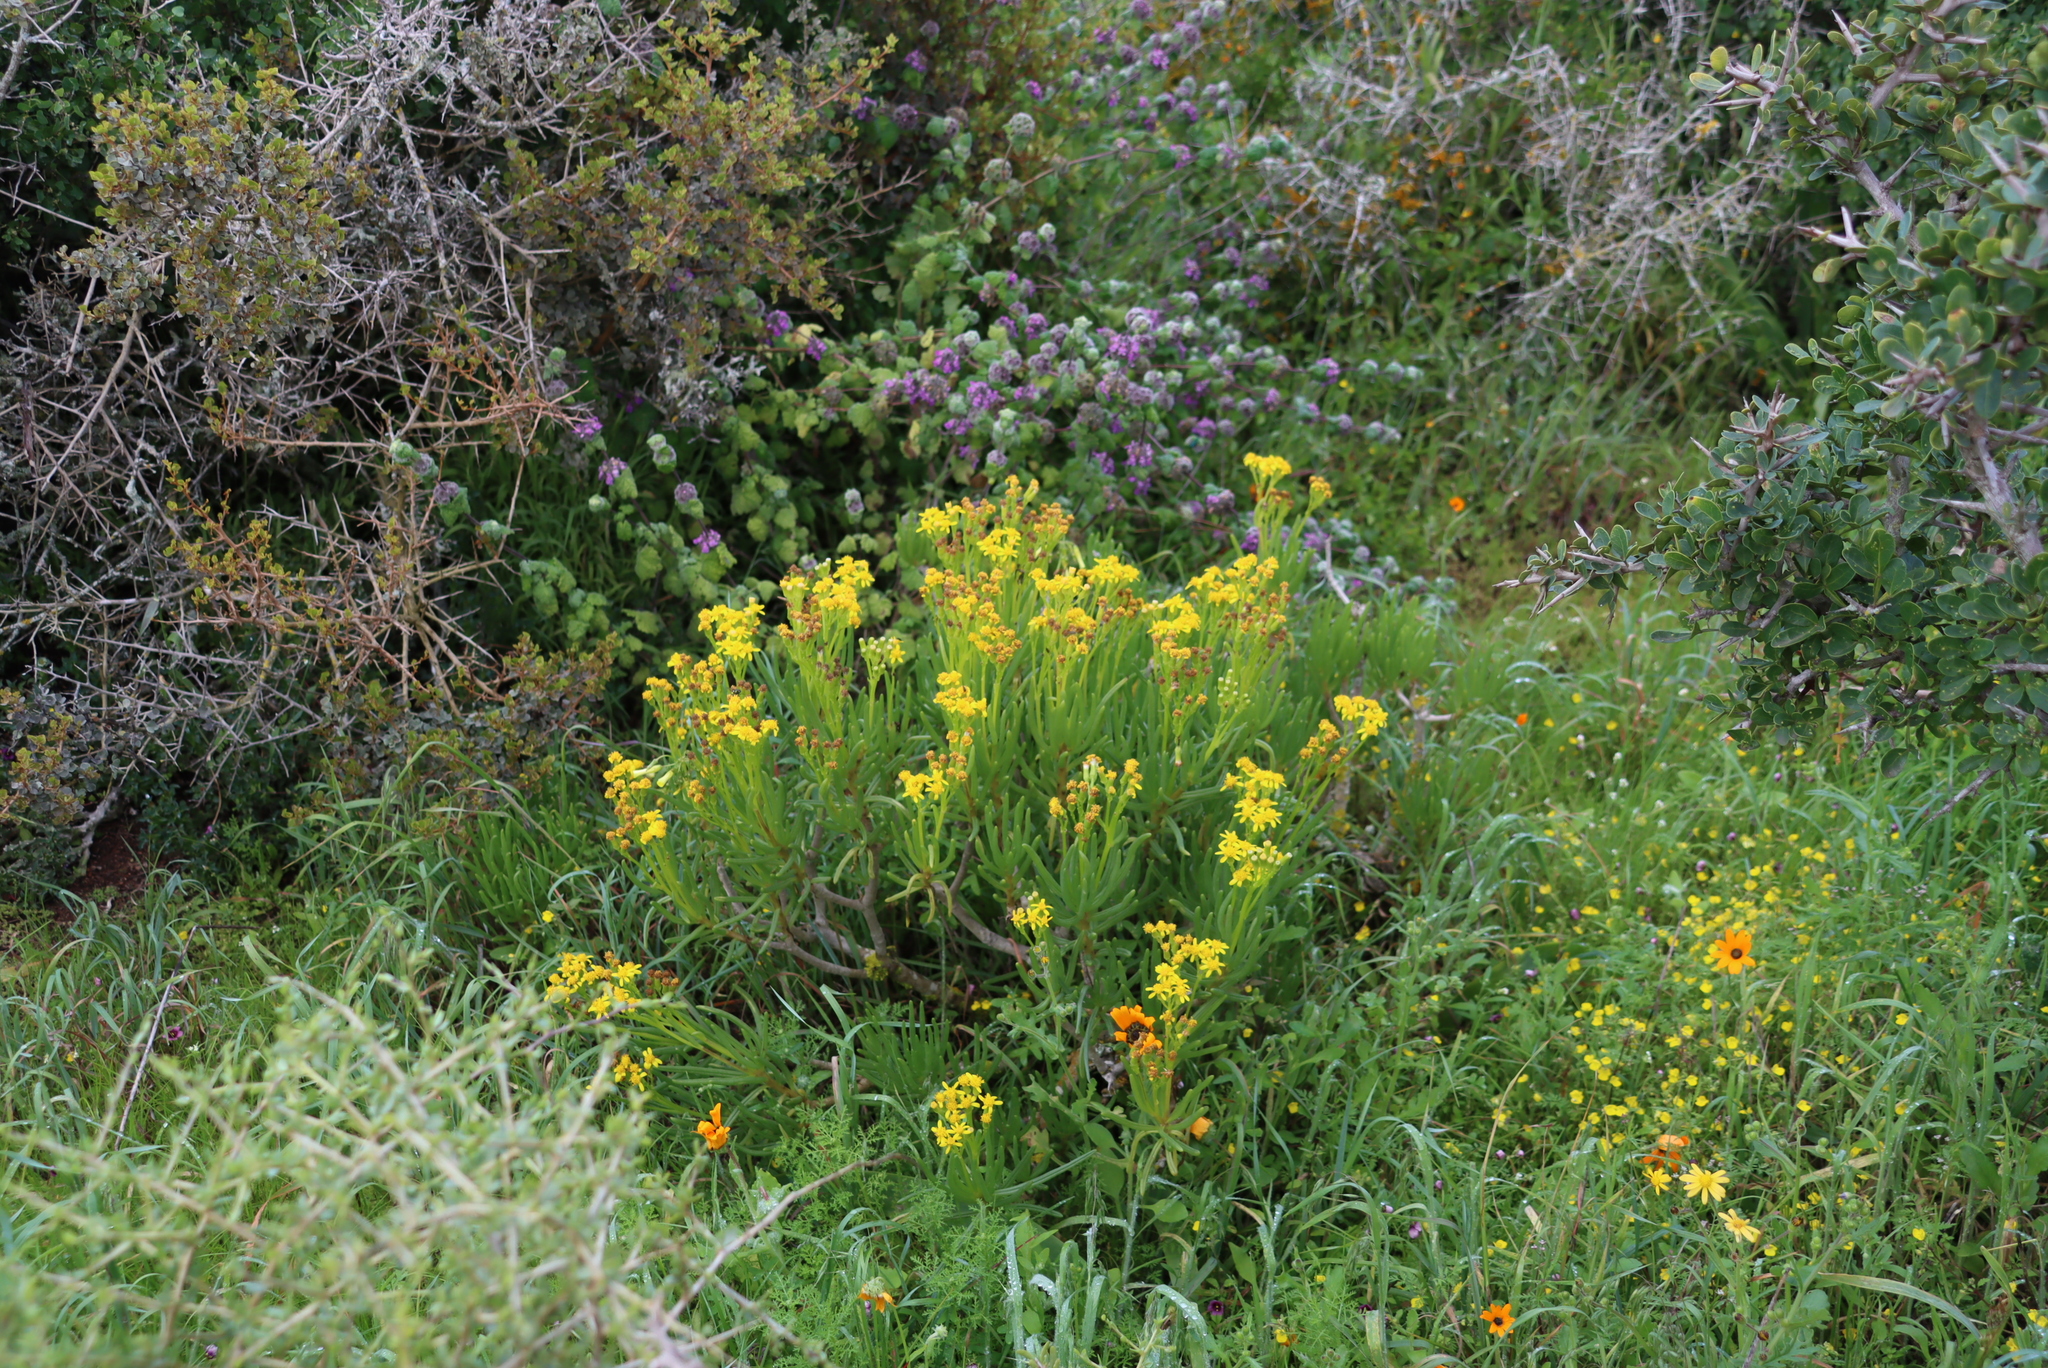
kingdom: Plantae
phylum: Tracheophyta
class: Magnoliopsida
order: Asterales
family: Asteraceae
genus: Curio
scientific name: Curio corymbifer
